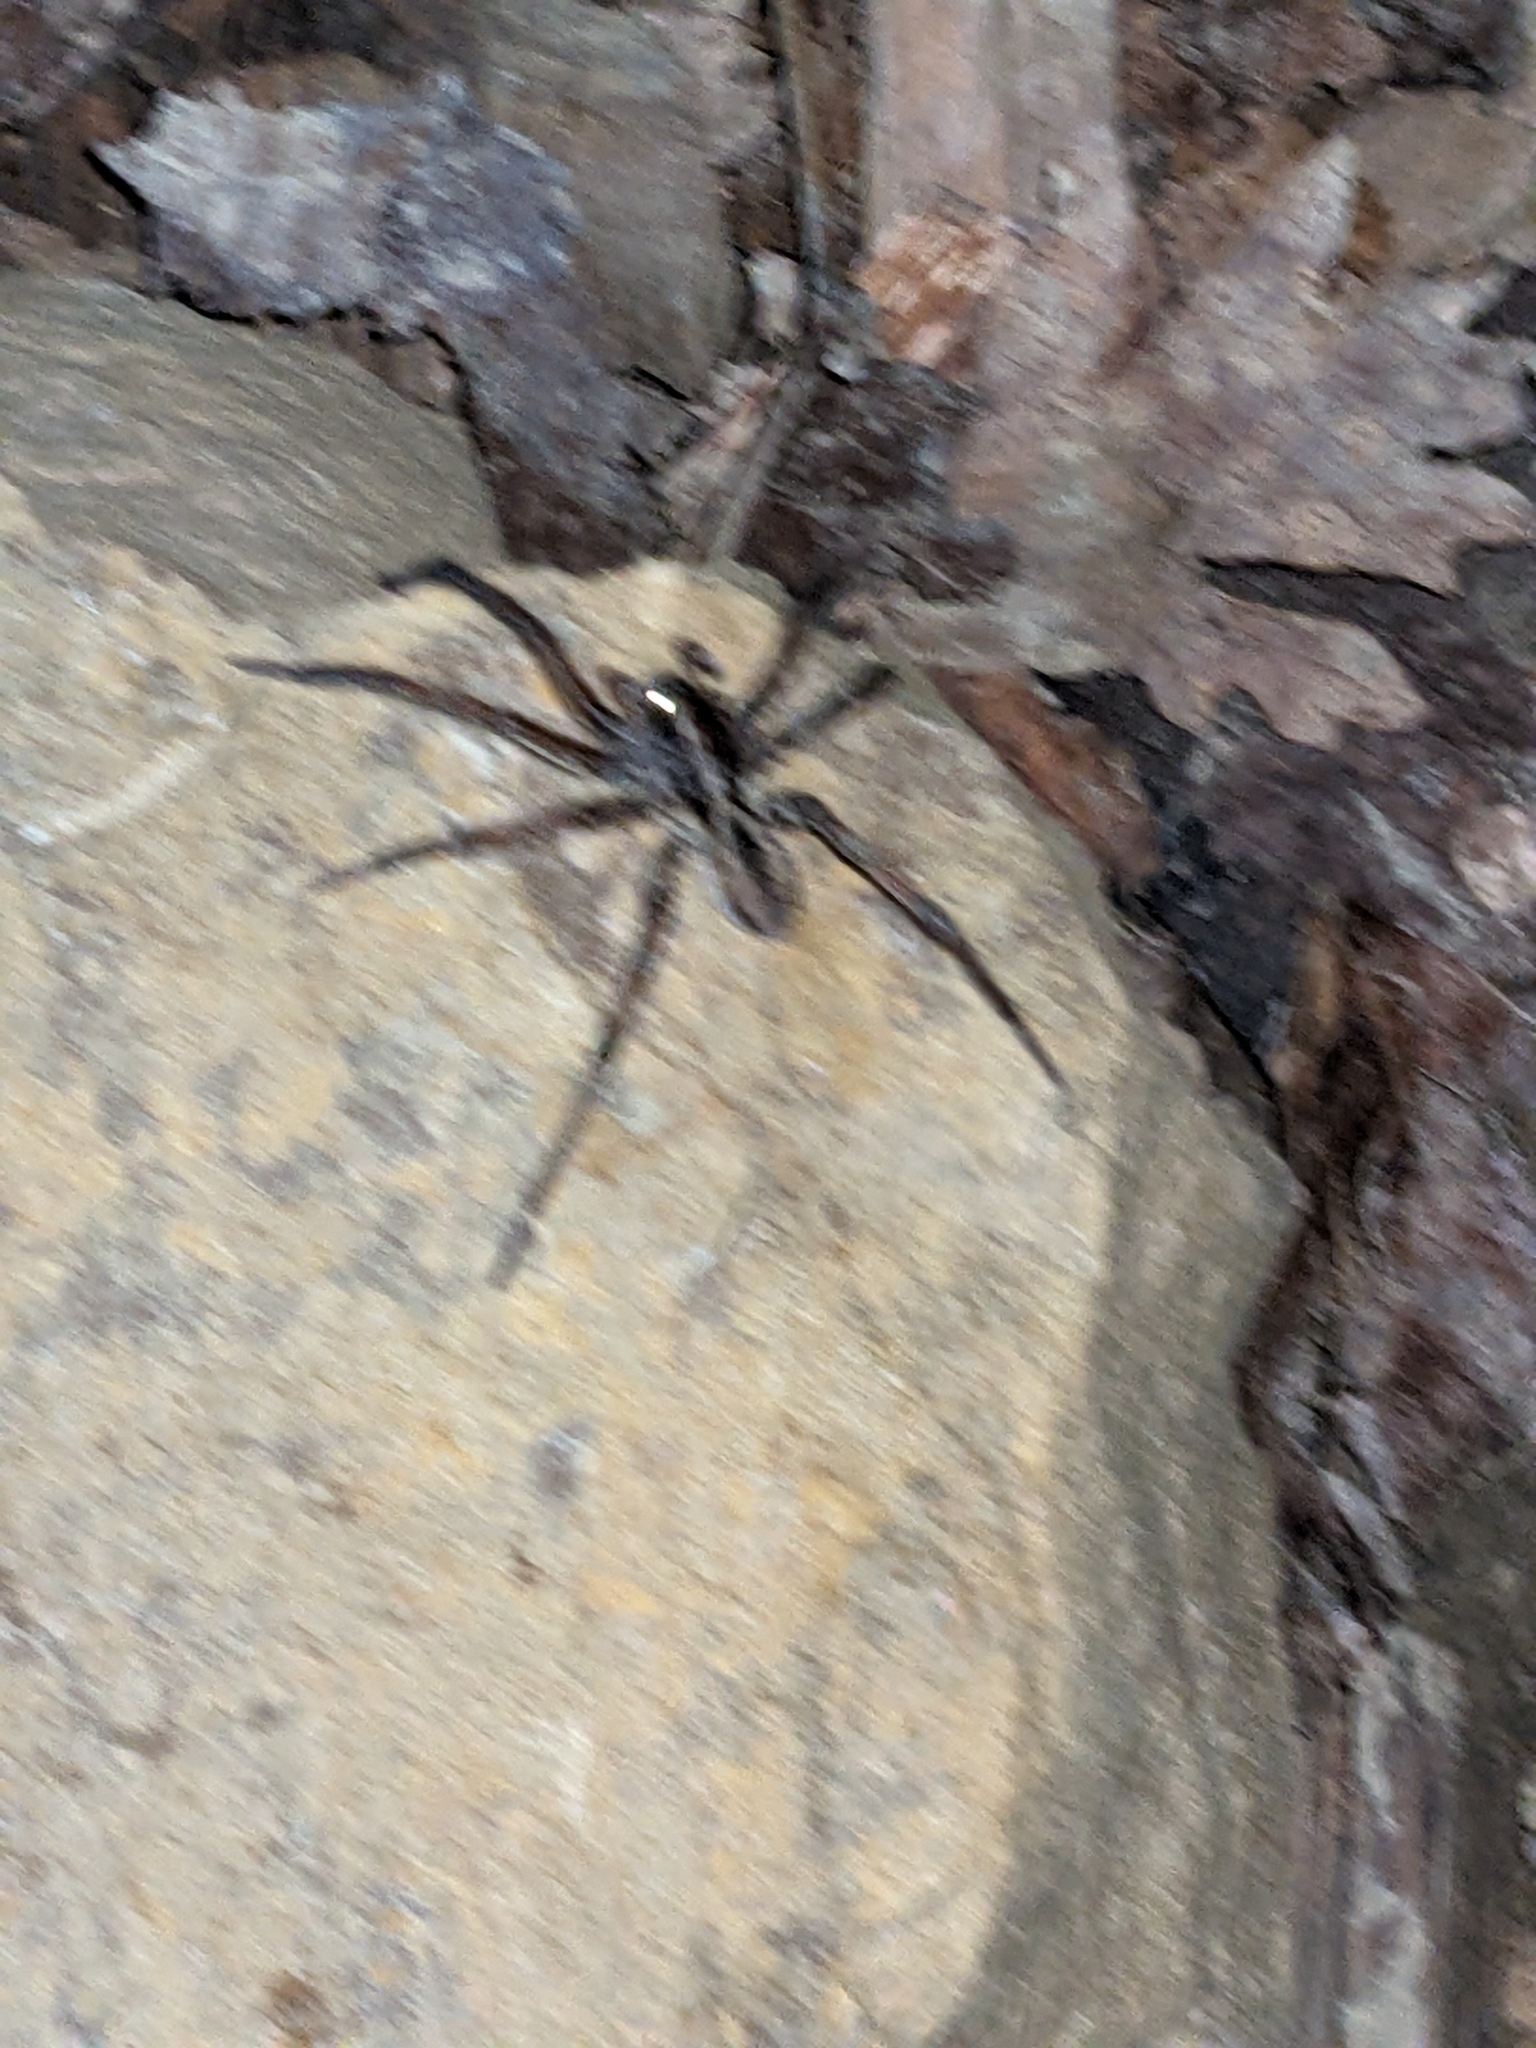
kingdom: Animalia
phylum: Arthropoda
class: Arachnida
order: Araneae
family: Lycosidae
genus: Hogna
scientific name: Hogna radiata
